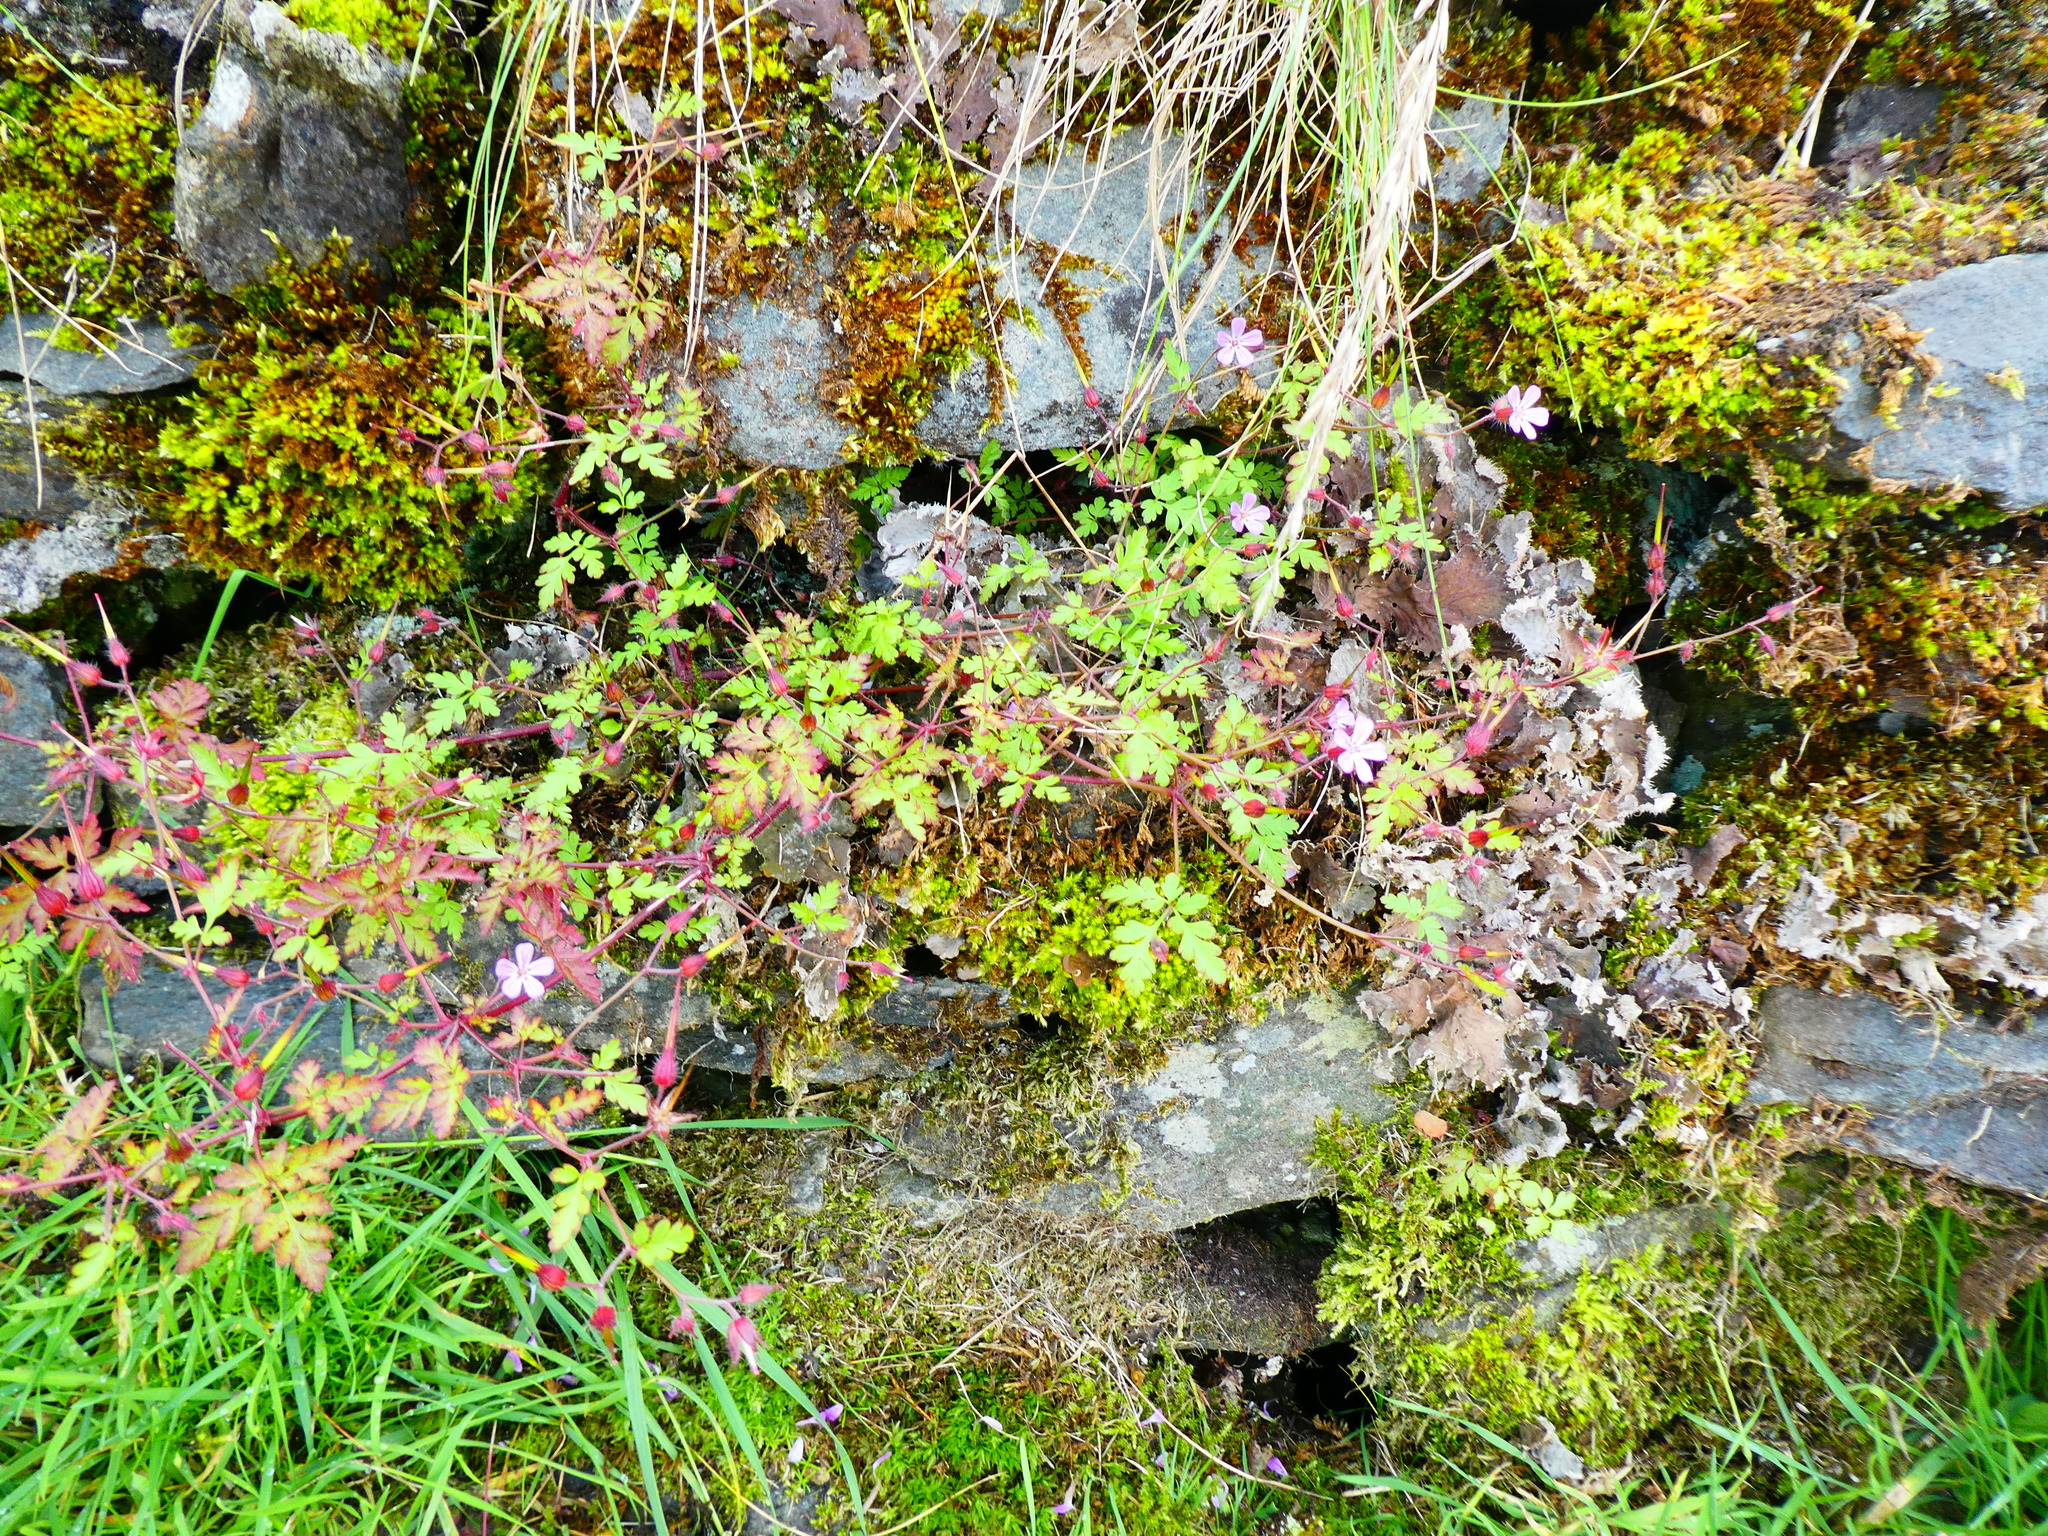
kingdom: Plantae
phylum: Tracheophyta
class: Magnoliopsida
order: Geraniales
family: Geraniaceae
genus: Geranium
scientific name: Geranium robertianum
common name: Herb-robert
